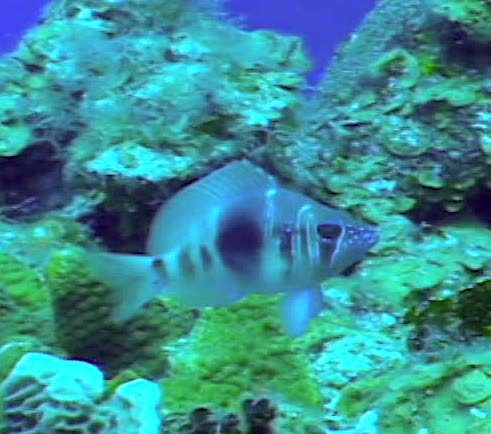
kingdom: Animalia
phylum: Chordata
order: Perciformes
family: Serranidae
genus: Hypoplectrus
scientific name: Hypoplectrus puella
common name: Barred hamlet
